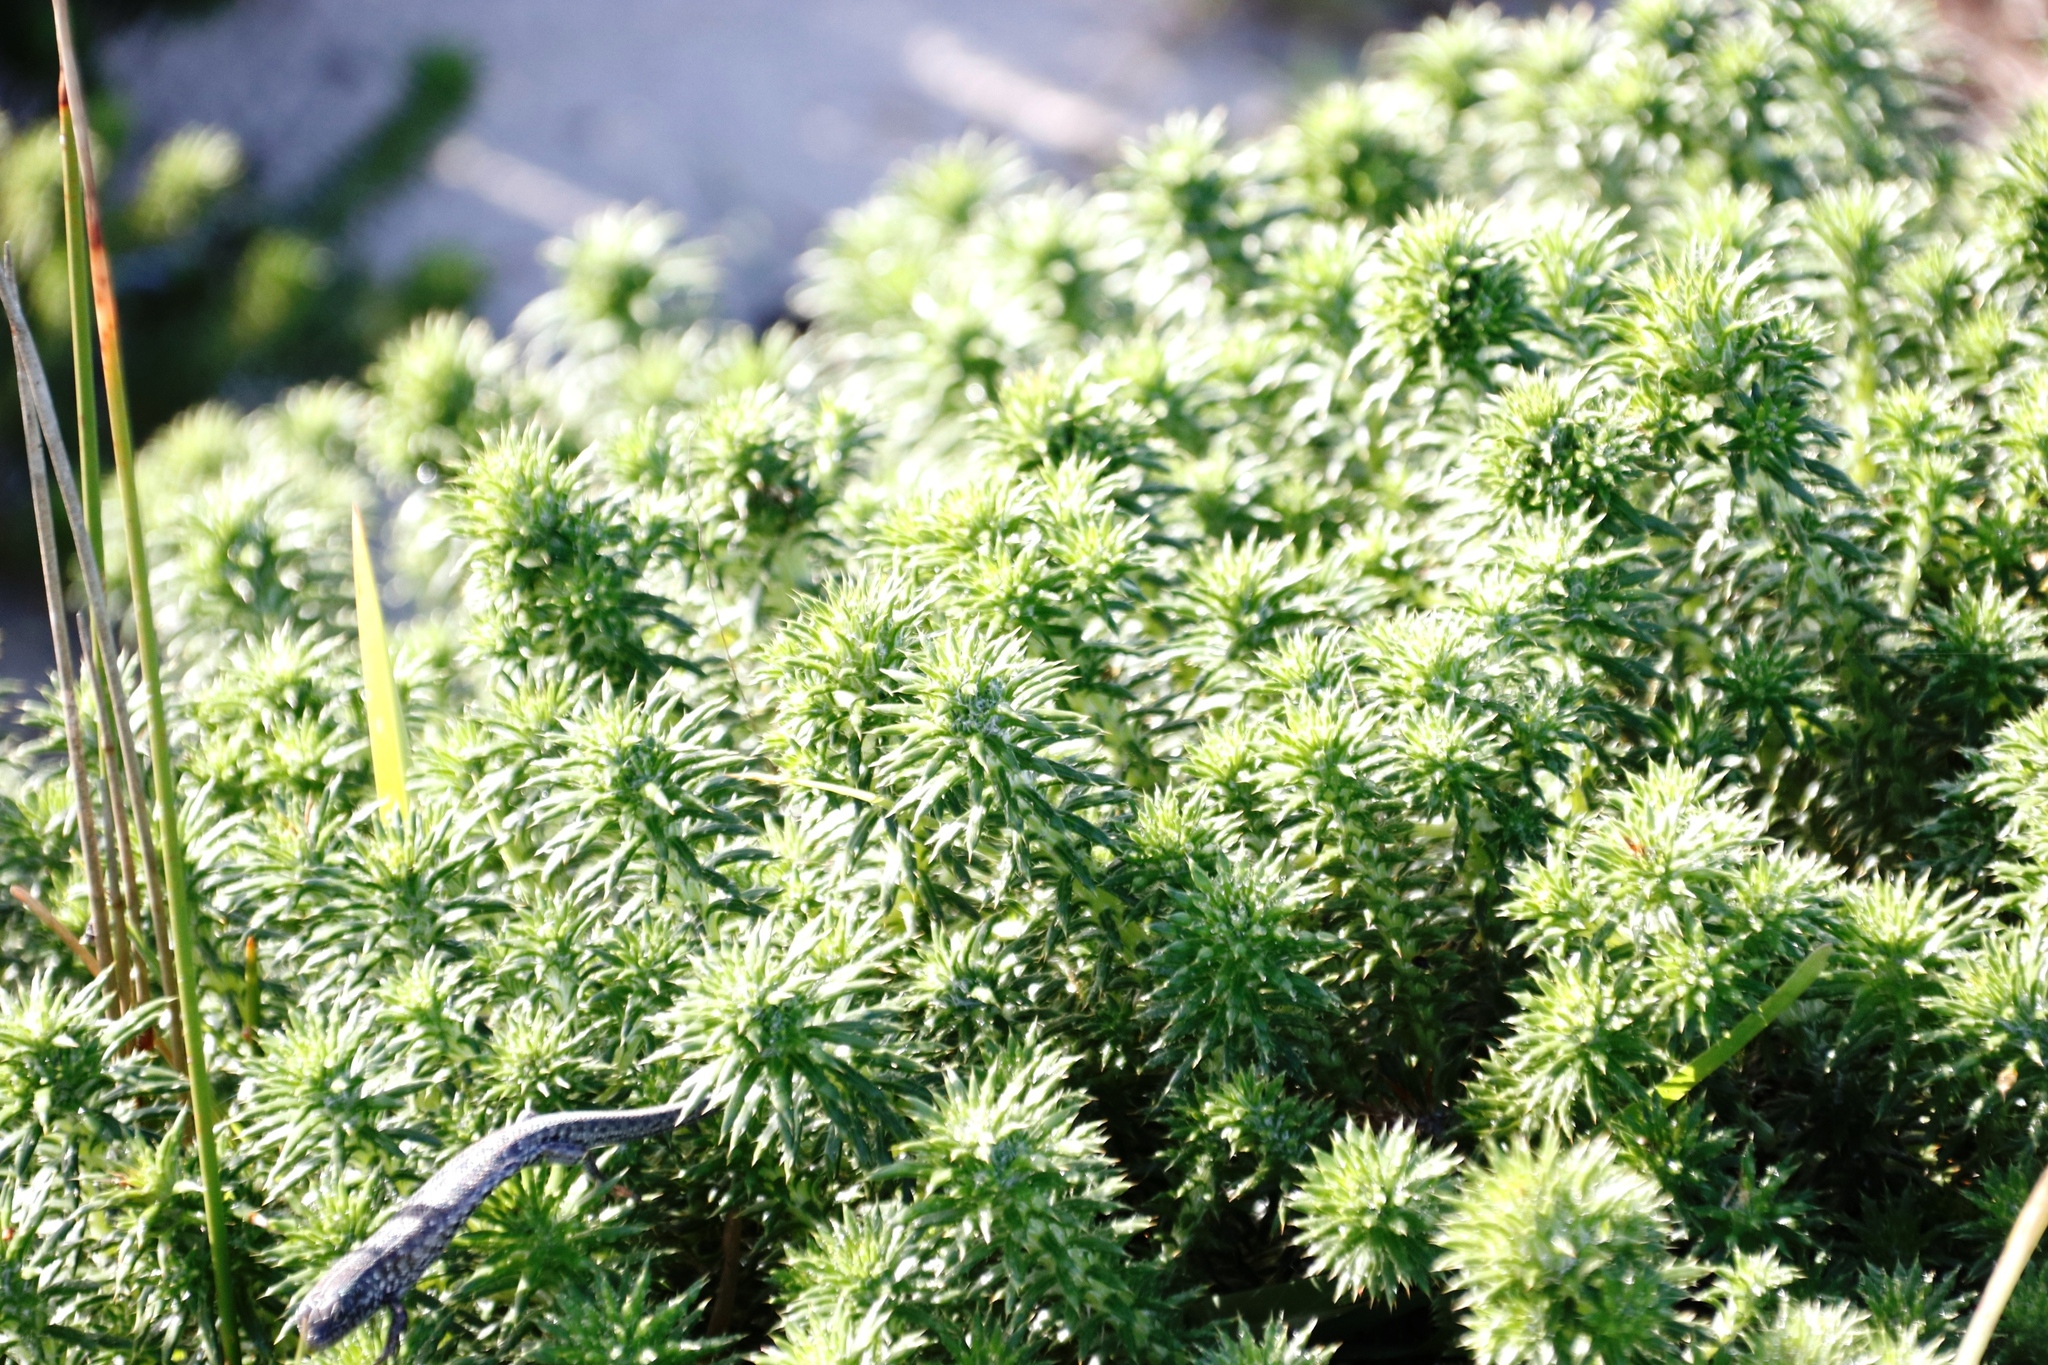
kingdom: Plantae
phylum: Tracheophyta
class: Magnoliopsida
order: Asterales
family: Asteraceae
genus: Cullumia
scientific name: Cullumia squarrosa
